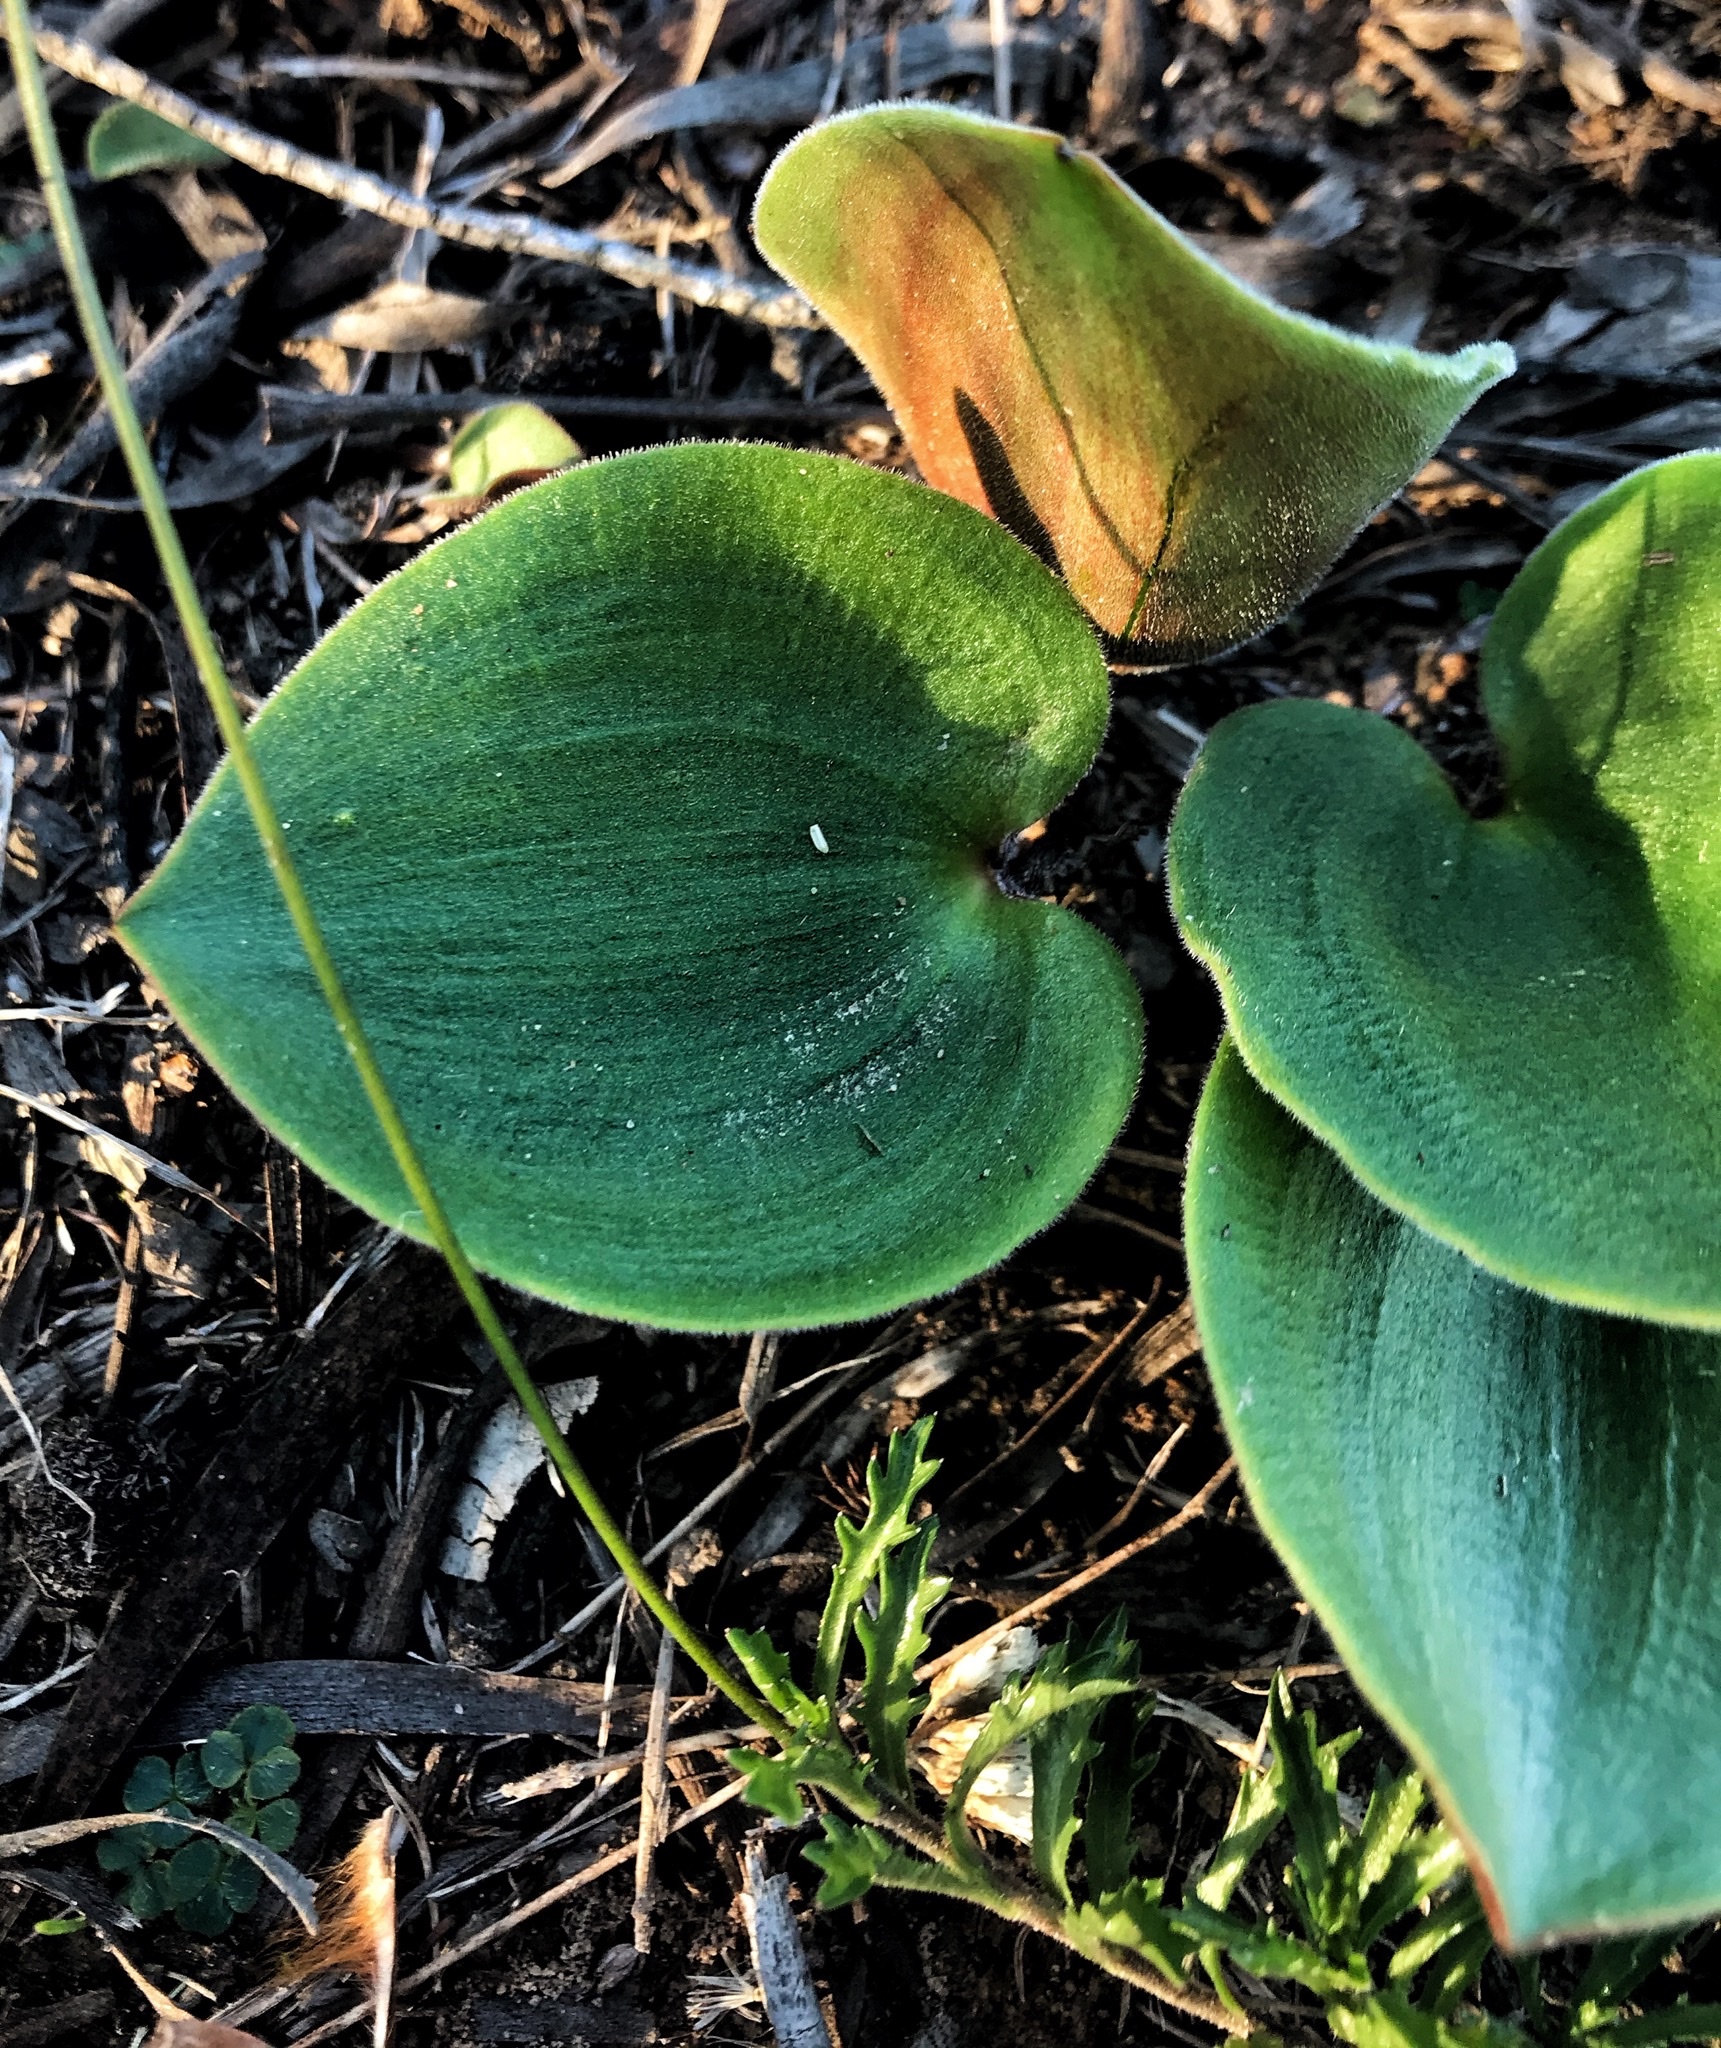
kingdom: Plantae
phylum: Tracheophyta
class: Liliopsida
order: Asparagales
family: Asparagaceae
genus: Eriospermum
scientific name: Eriospermum capense
